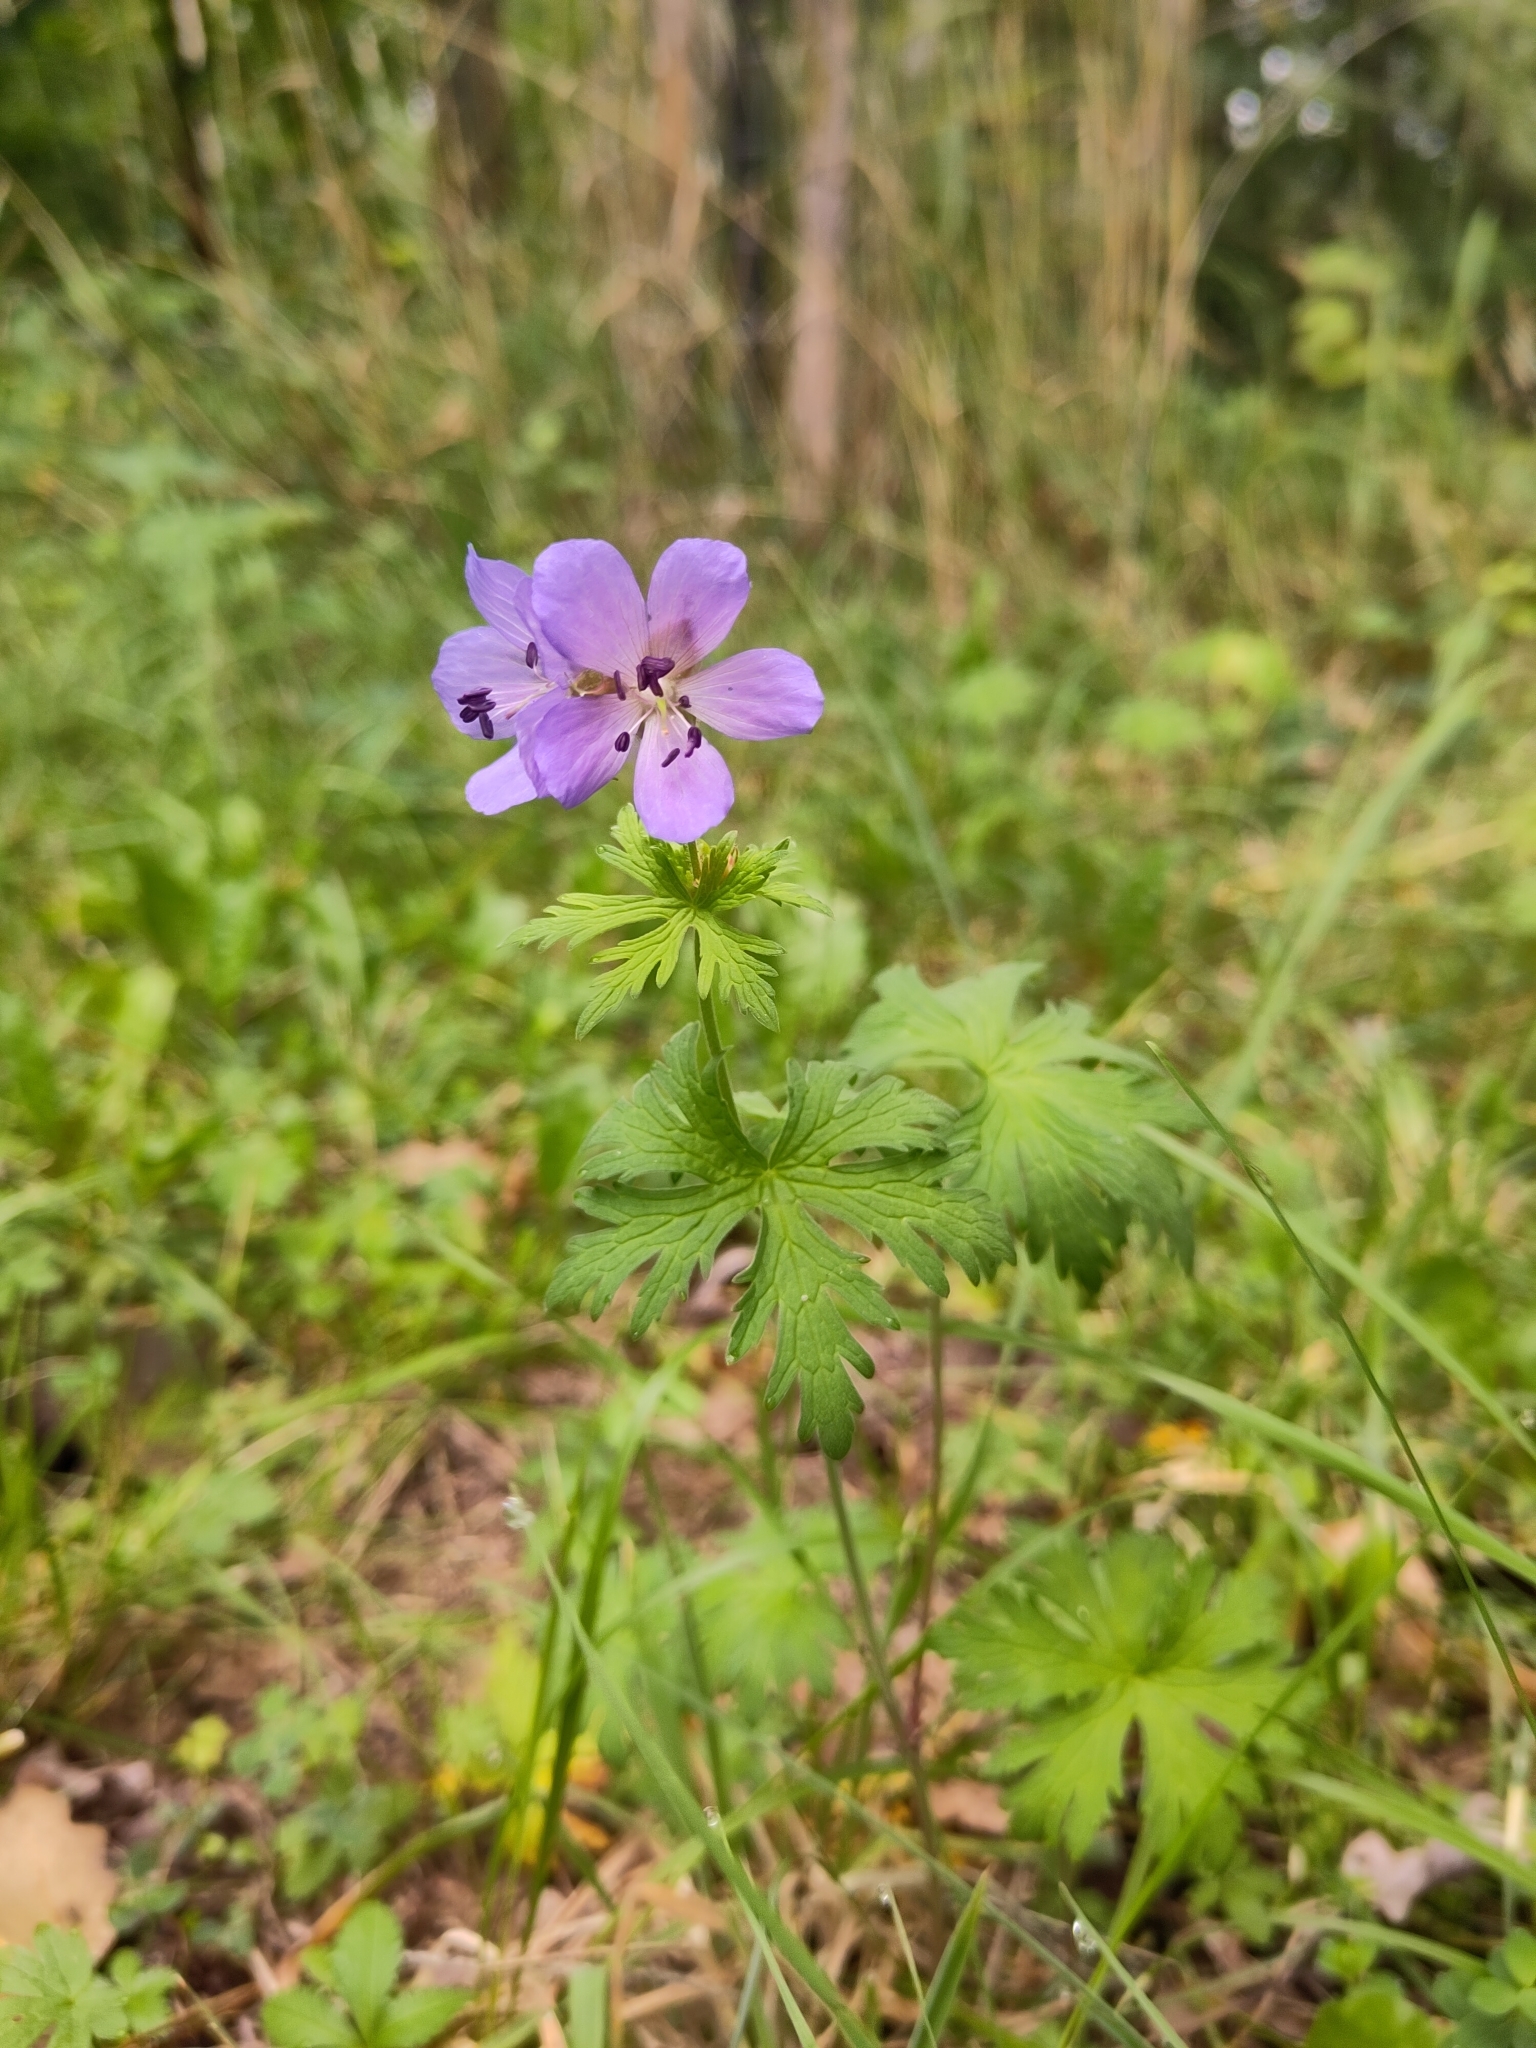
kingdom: Plantae
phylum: Tracheophyta
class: Magnoliopsida
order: Geraniales
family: Geraniaceae
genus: Geranium
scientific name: Geranium pratense
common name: Meadow crane's-bill
